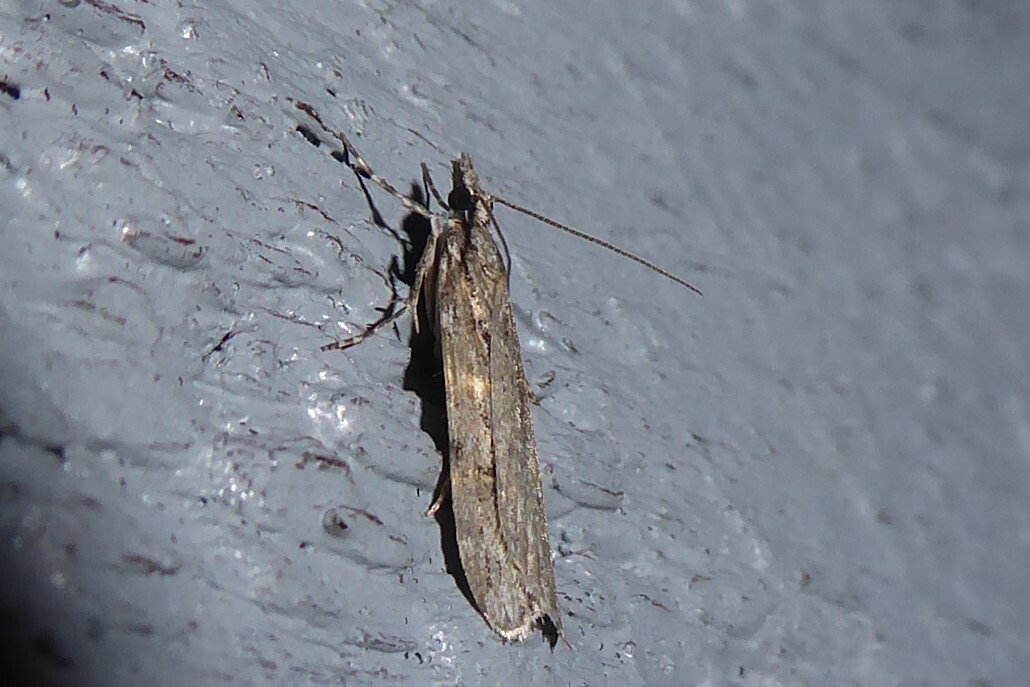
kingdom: Animalia
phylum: Arthropoda
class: Insecta
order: Lepidoptera
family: Crambidae
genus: Scoparia
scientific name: Scoparia chalicodes
